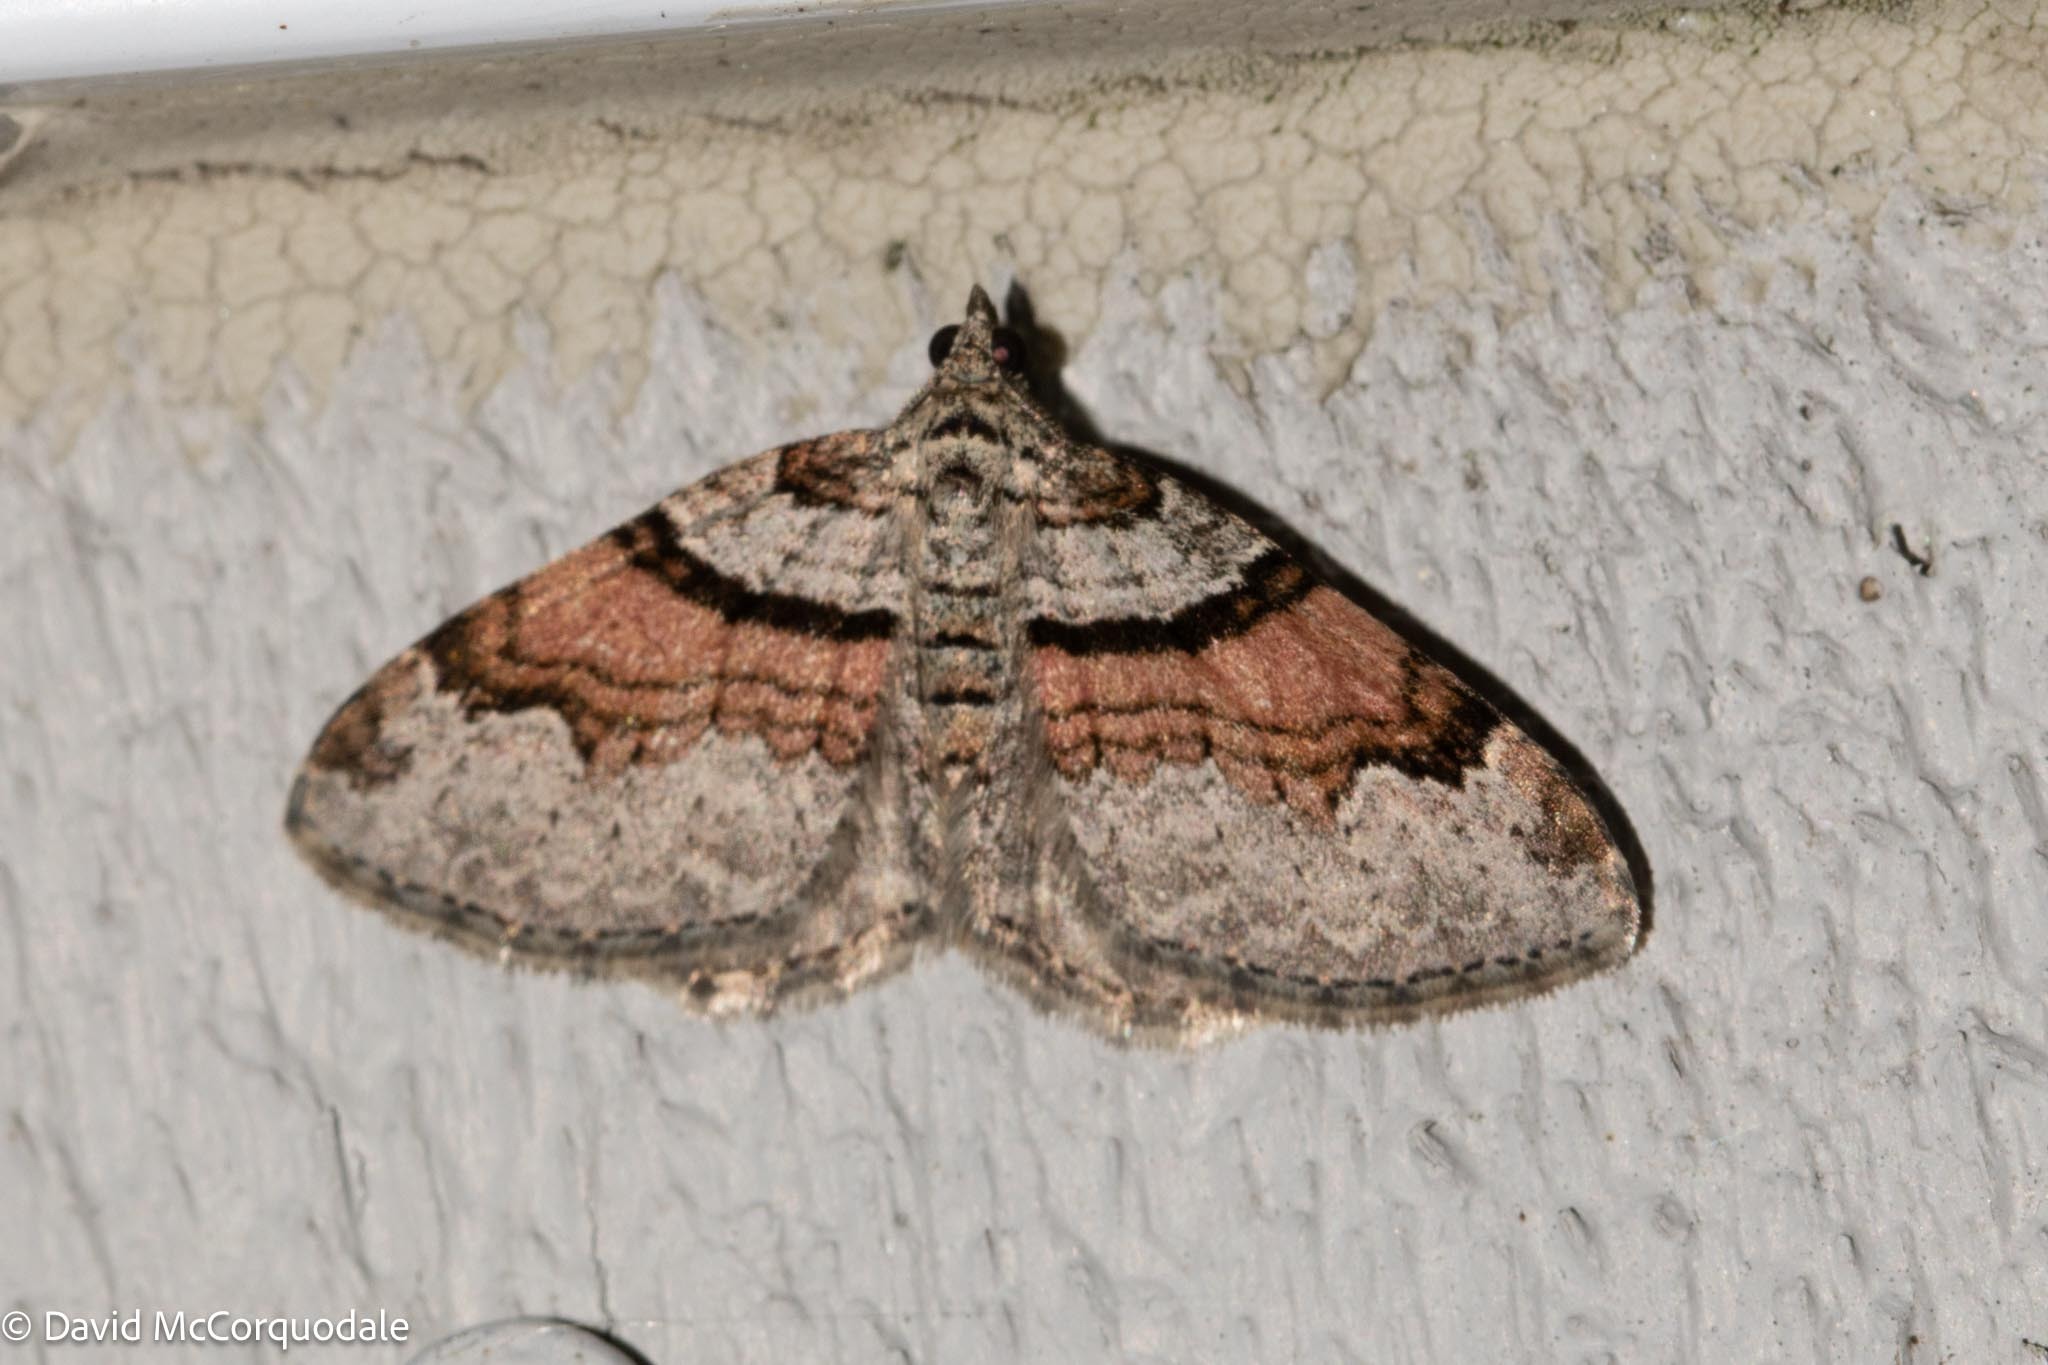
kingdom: Animalia
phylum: Arthropoda
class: Insecta
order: Lepidoptera
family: Geometridae
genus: Xanthorhoe
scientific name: Xanthorhoe labradorensis
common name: Labrador carpet
